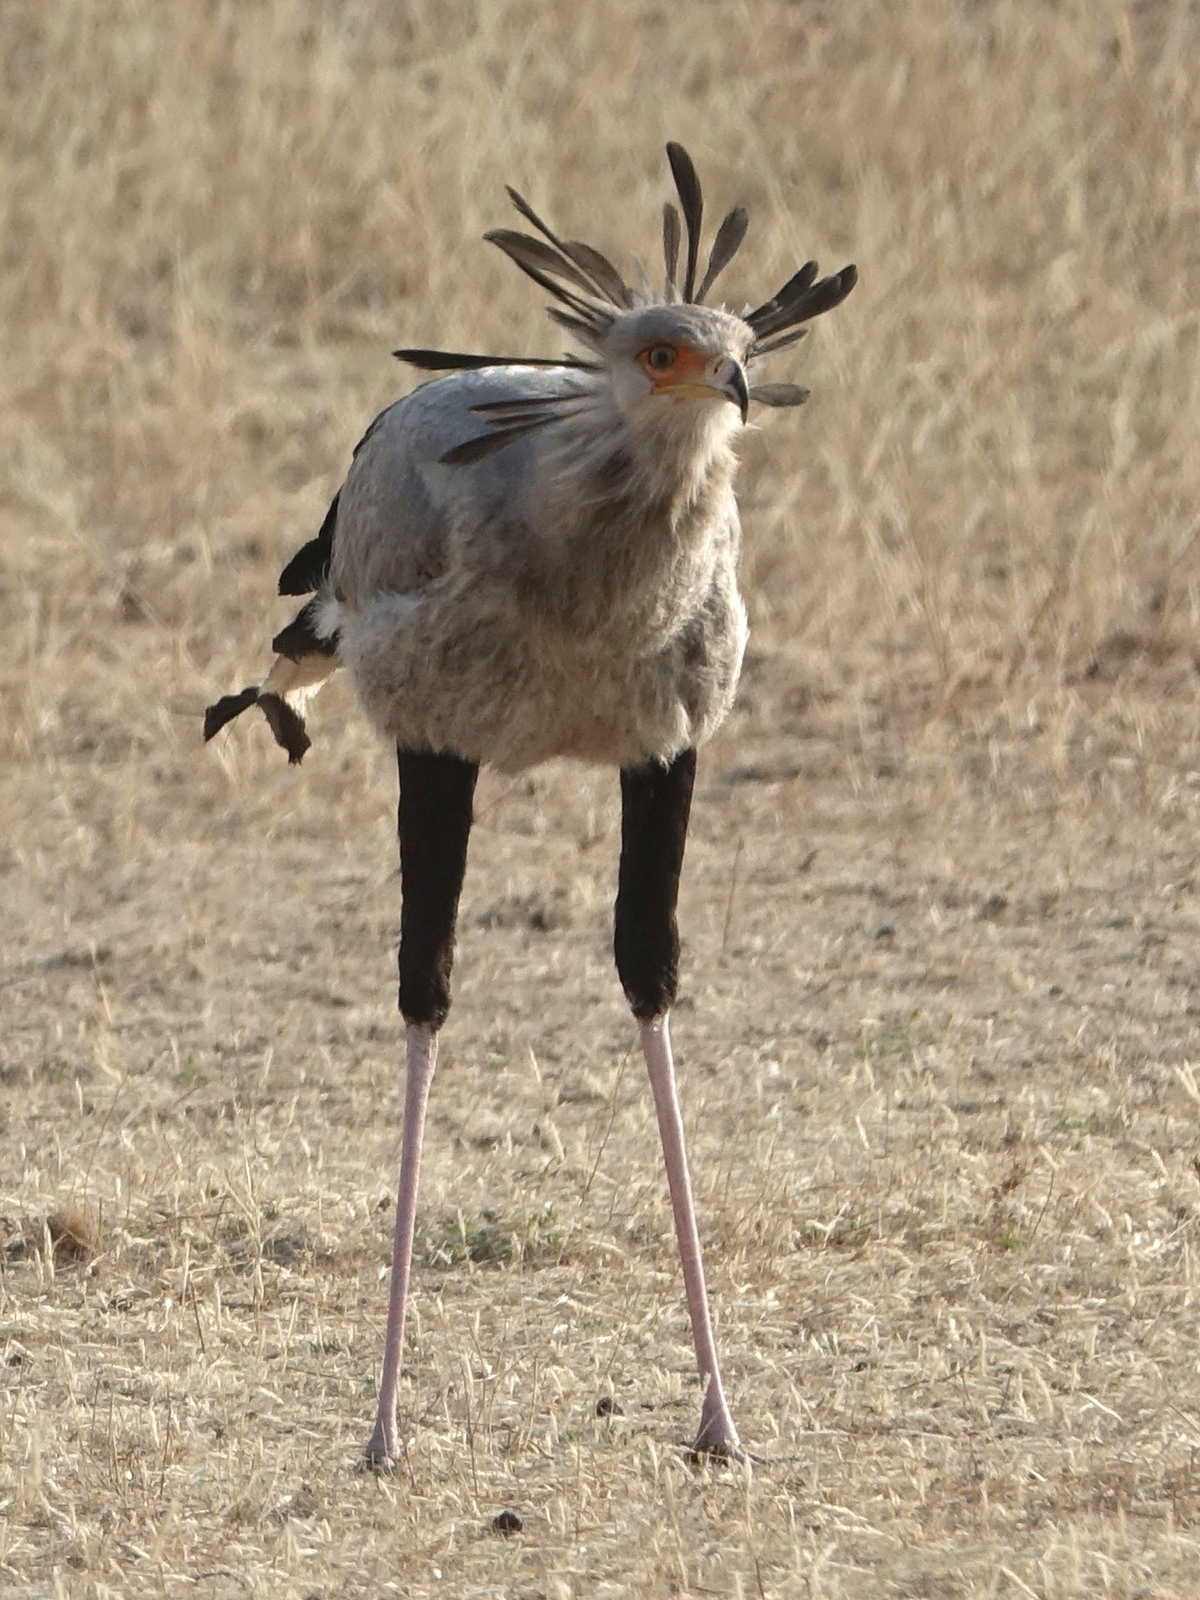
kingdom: Animalia
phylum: Chordata
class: Aves
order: Accipitriformes
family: Sagittariidae
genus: Sagittarius
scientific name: Sagittarius serpentarius
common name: Secretarybird
